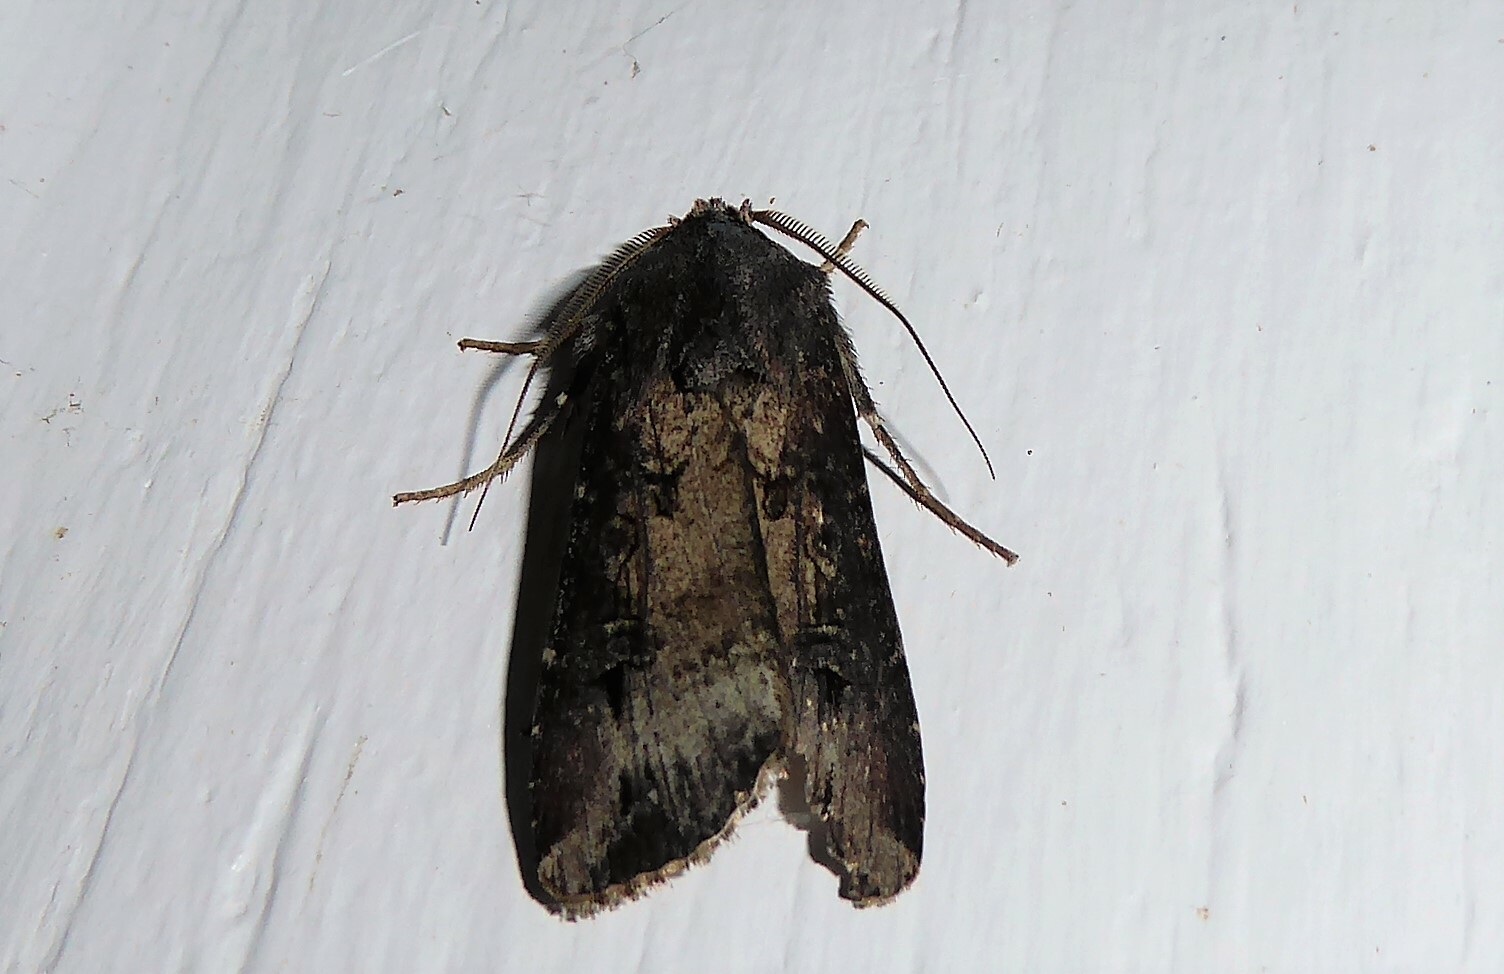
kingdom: Animalia
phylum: Arthropoda
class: Insecta
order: Lepidoptera
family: Noctuidae
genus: Agrotis
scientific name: Agrotis ipsilon
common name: Dark sword-grass
